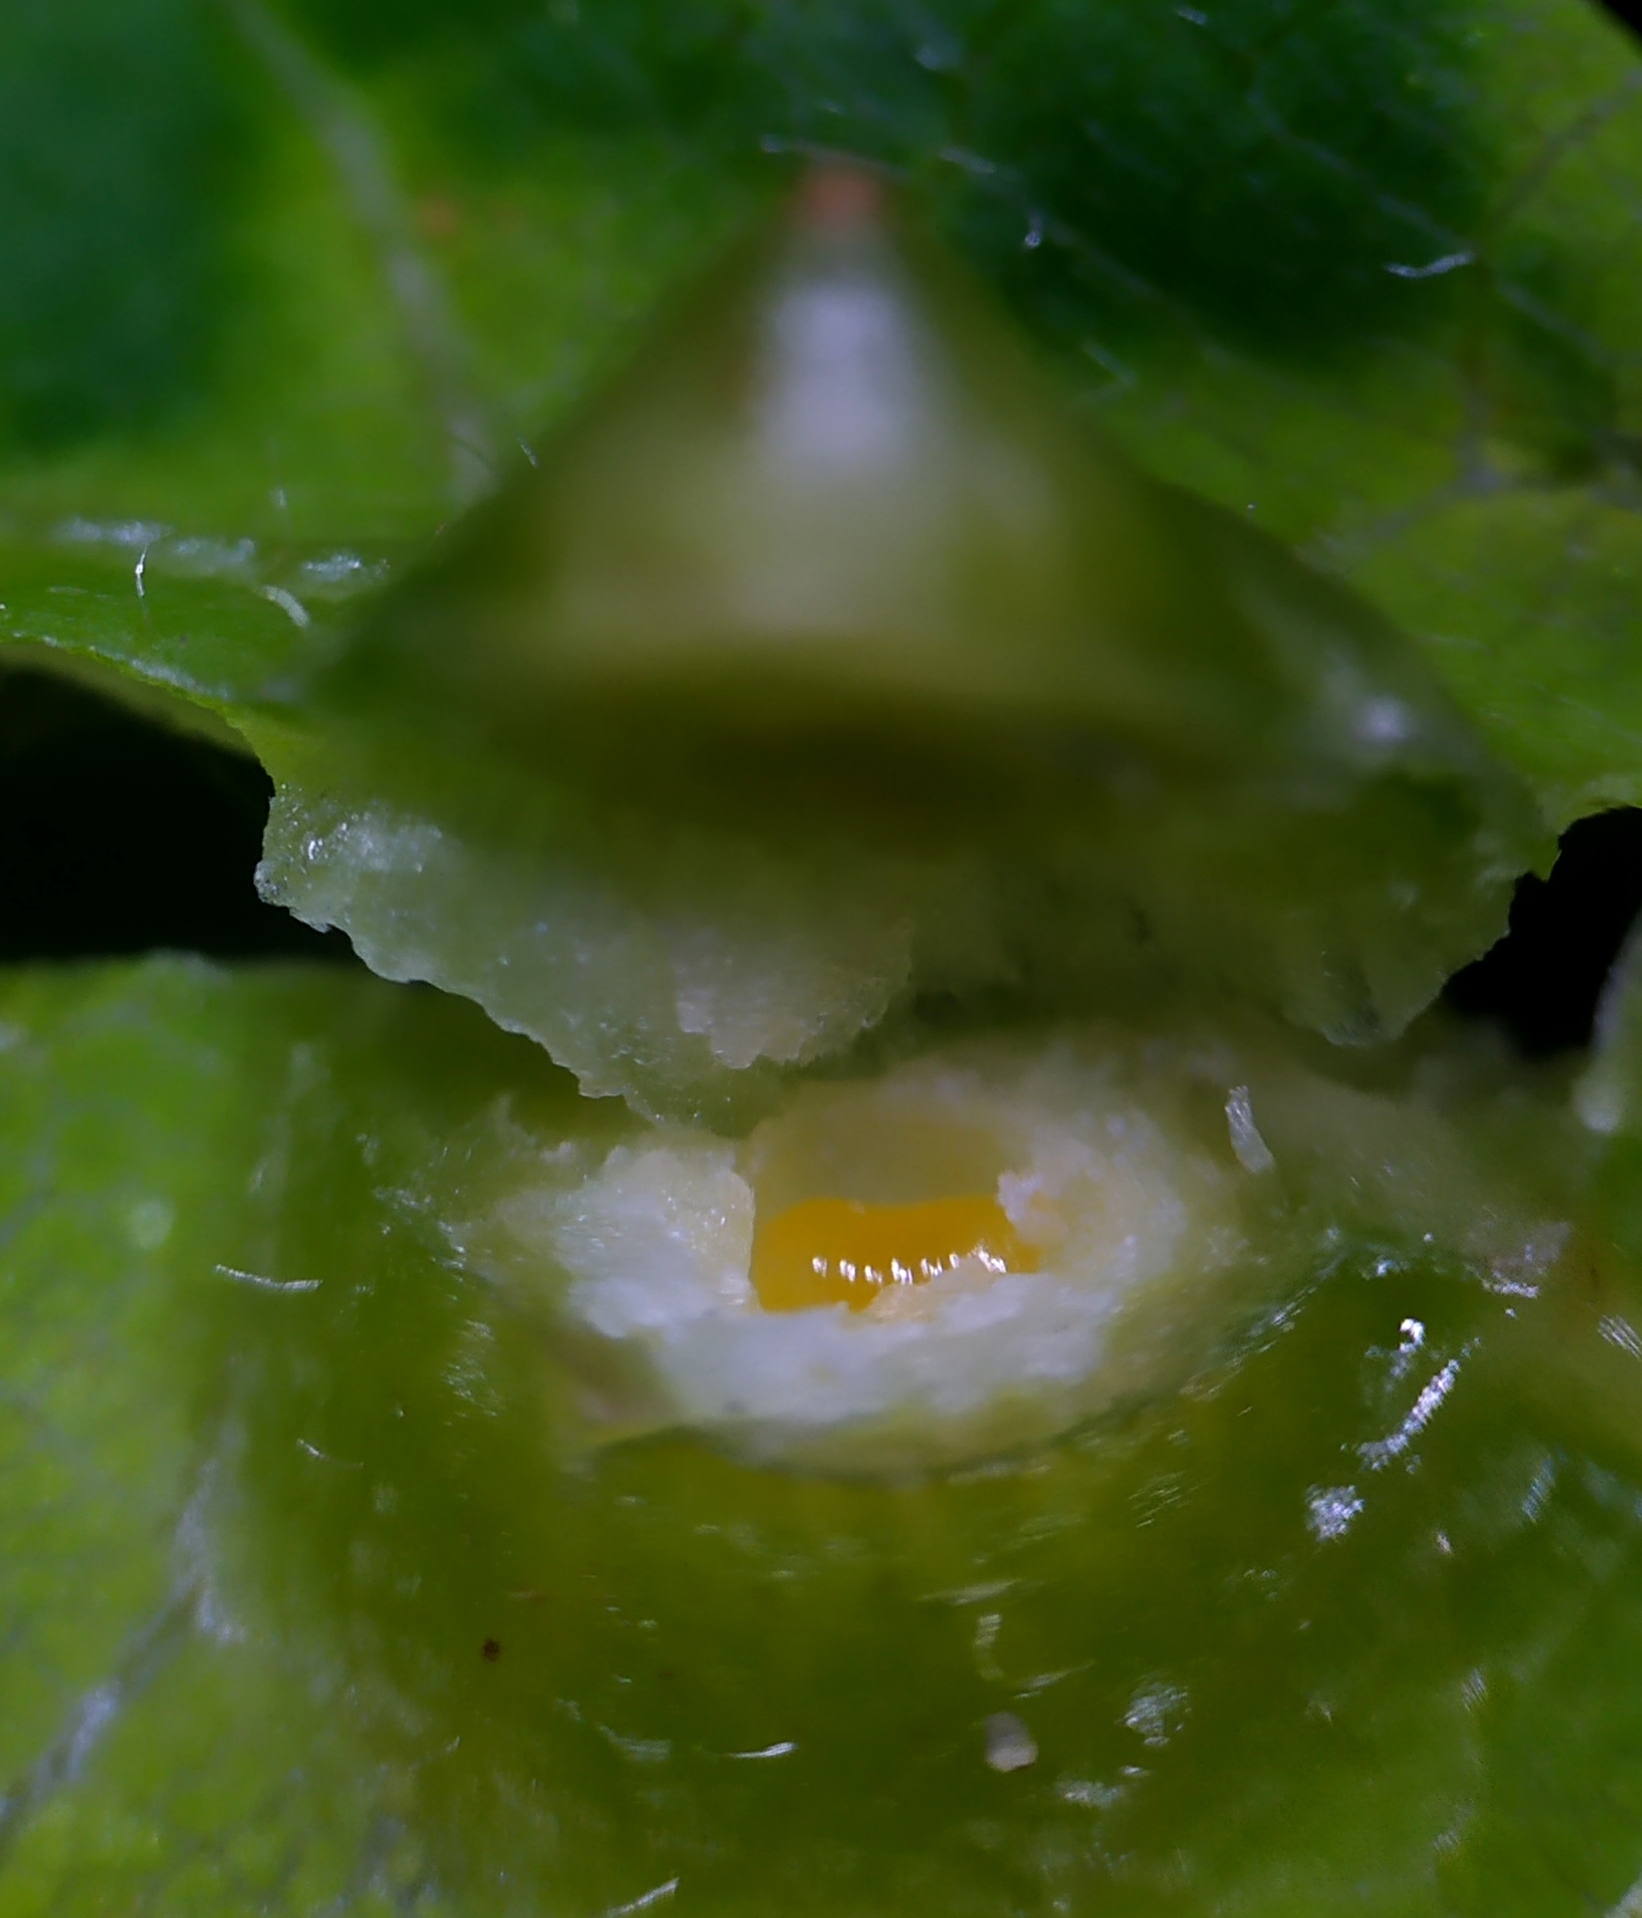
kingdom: Animalia
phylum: Arthropoda
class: Insecta
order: Diptera
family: Cecidomyiidae
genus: Didymomyia
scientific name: Didymomyia tiliacea
